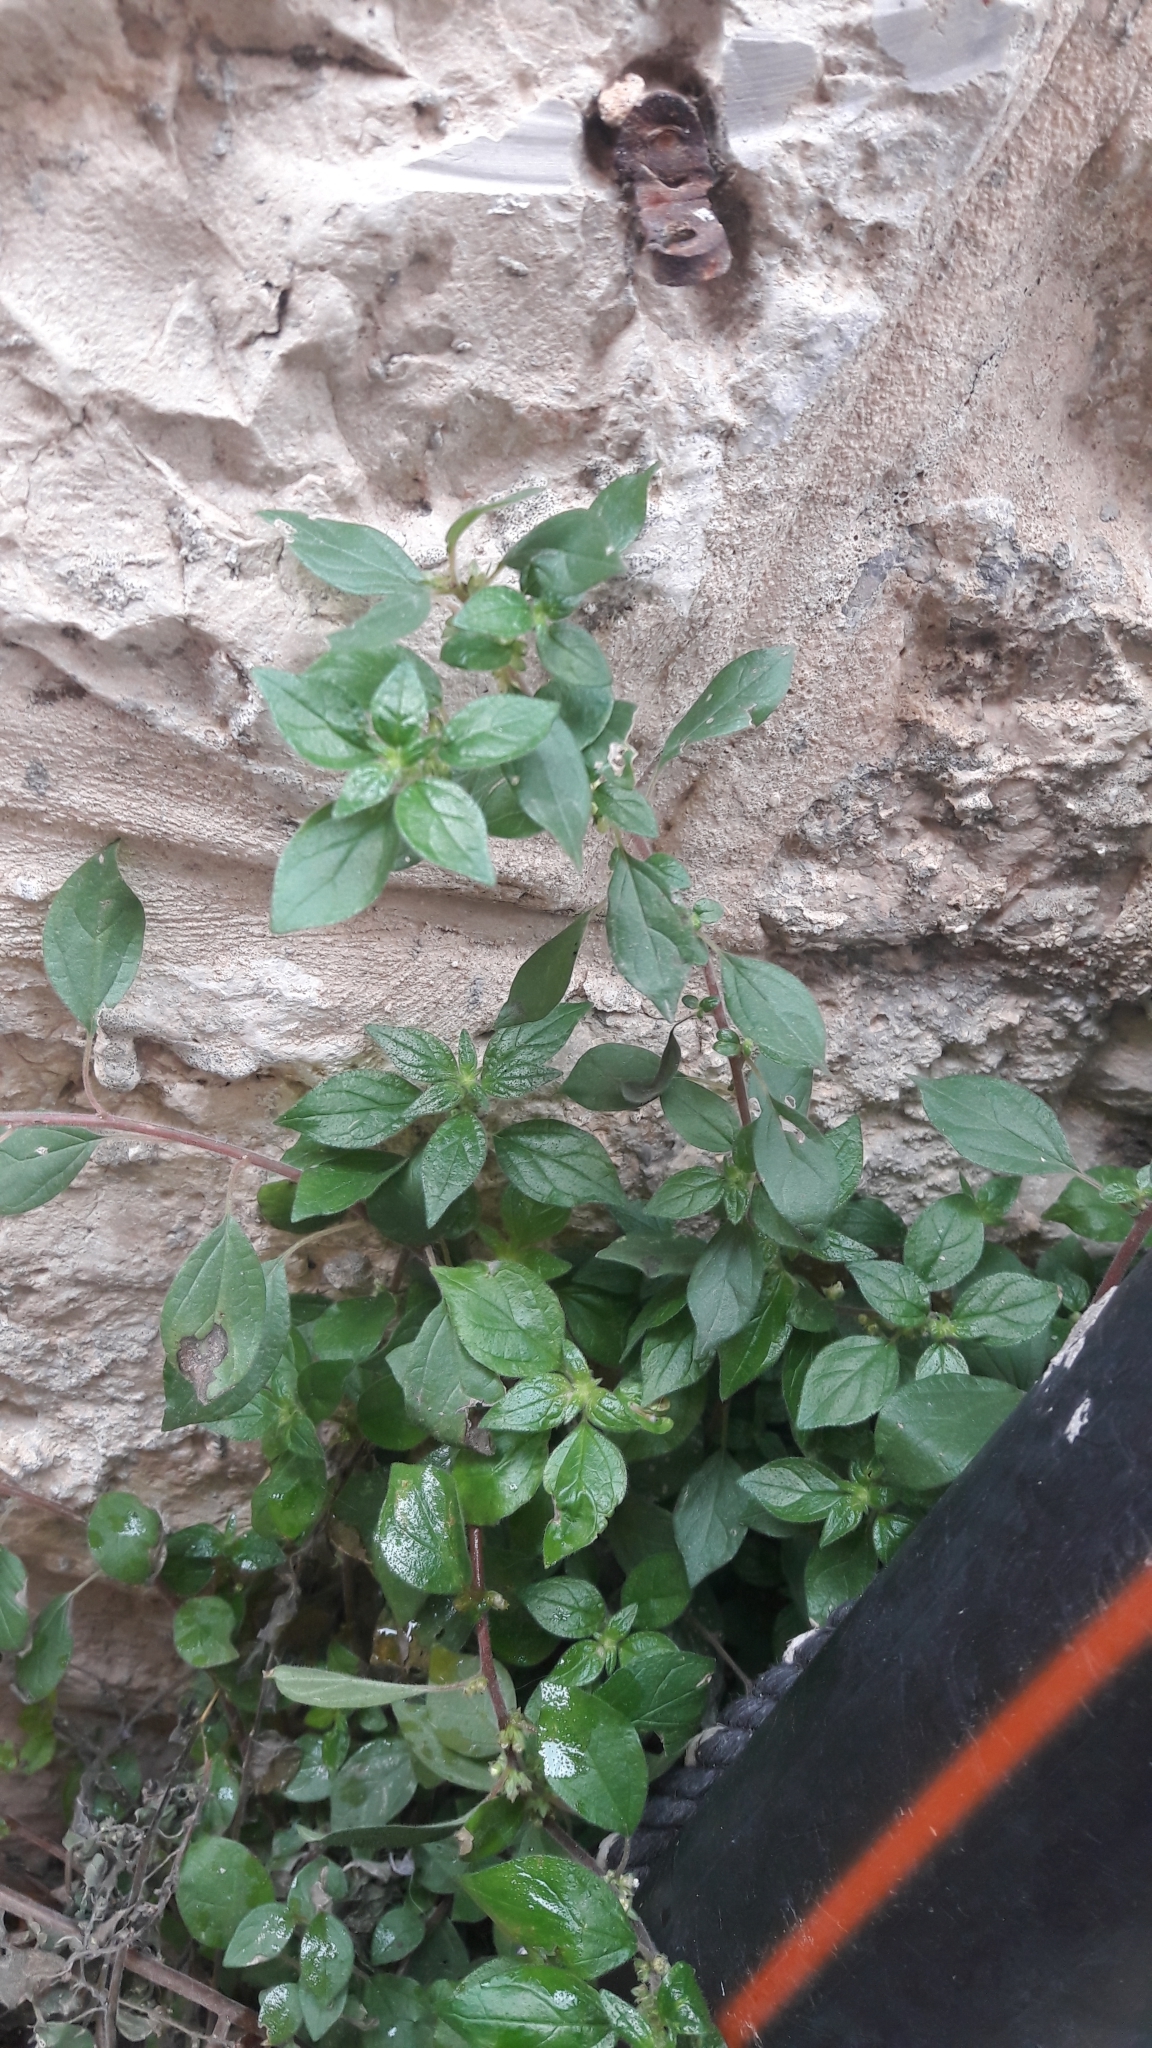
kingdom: Plantae
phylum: Tracheophyta
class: Magnoliopsida
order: Rosales
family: Urticaceae
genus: Parietaria
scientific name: Parietaria judaica
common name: Pellitory-of-the-wall
